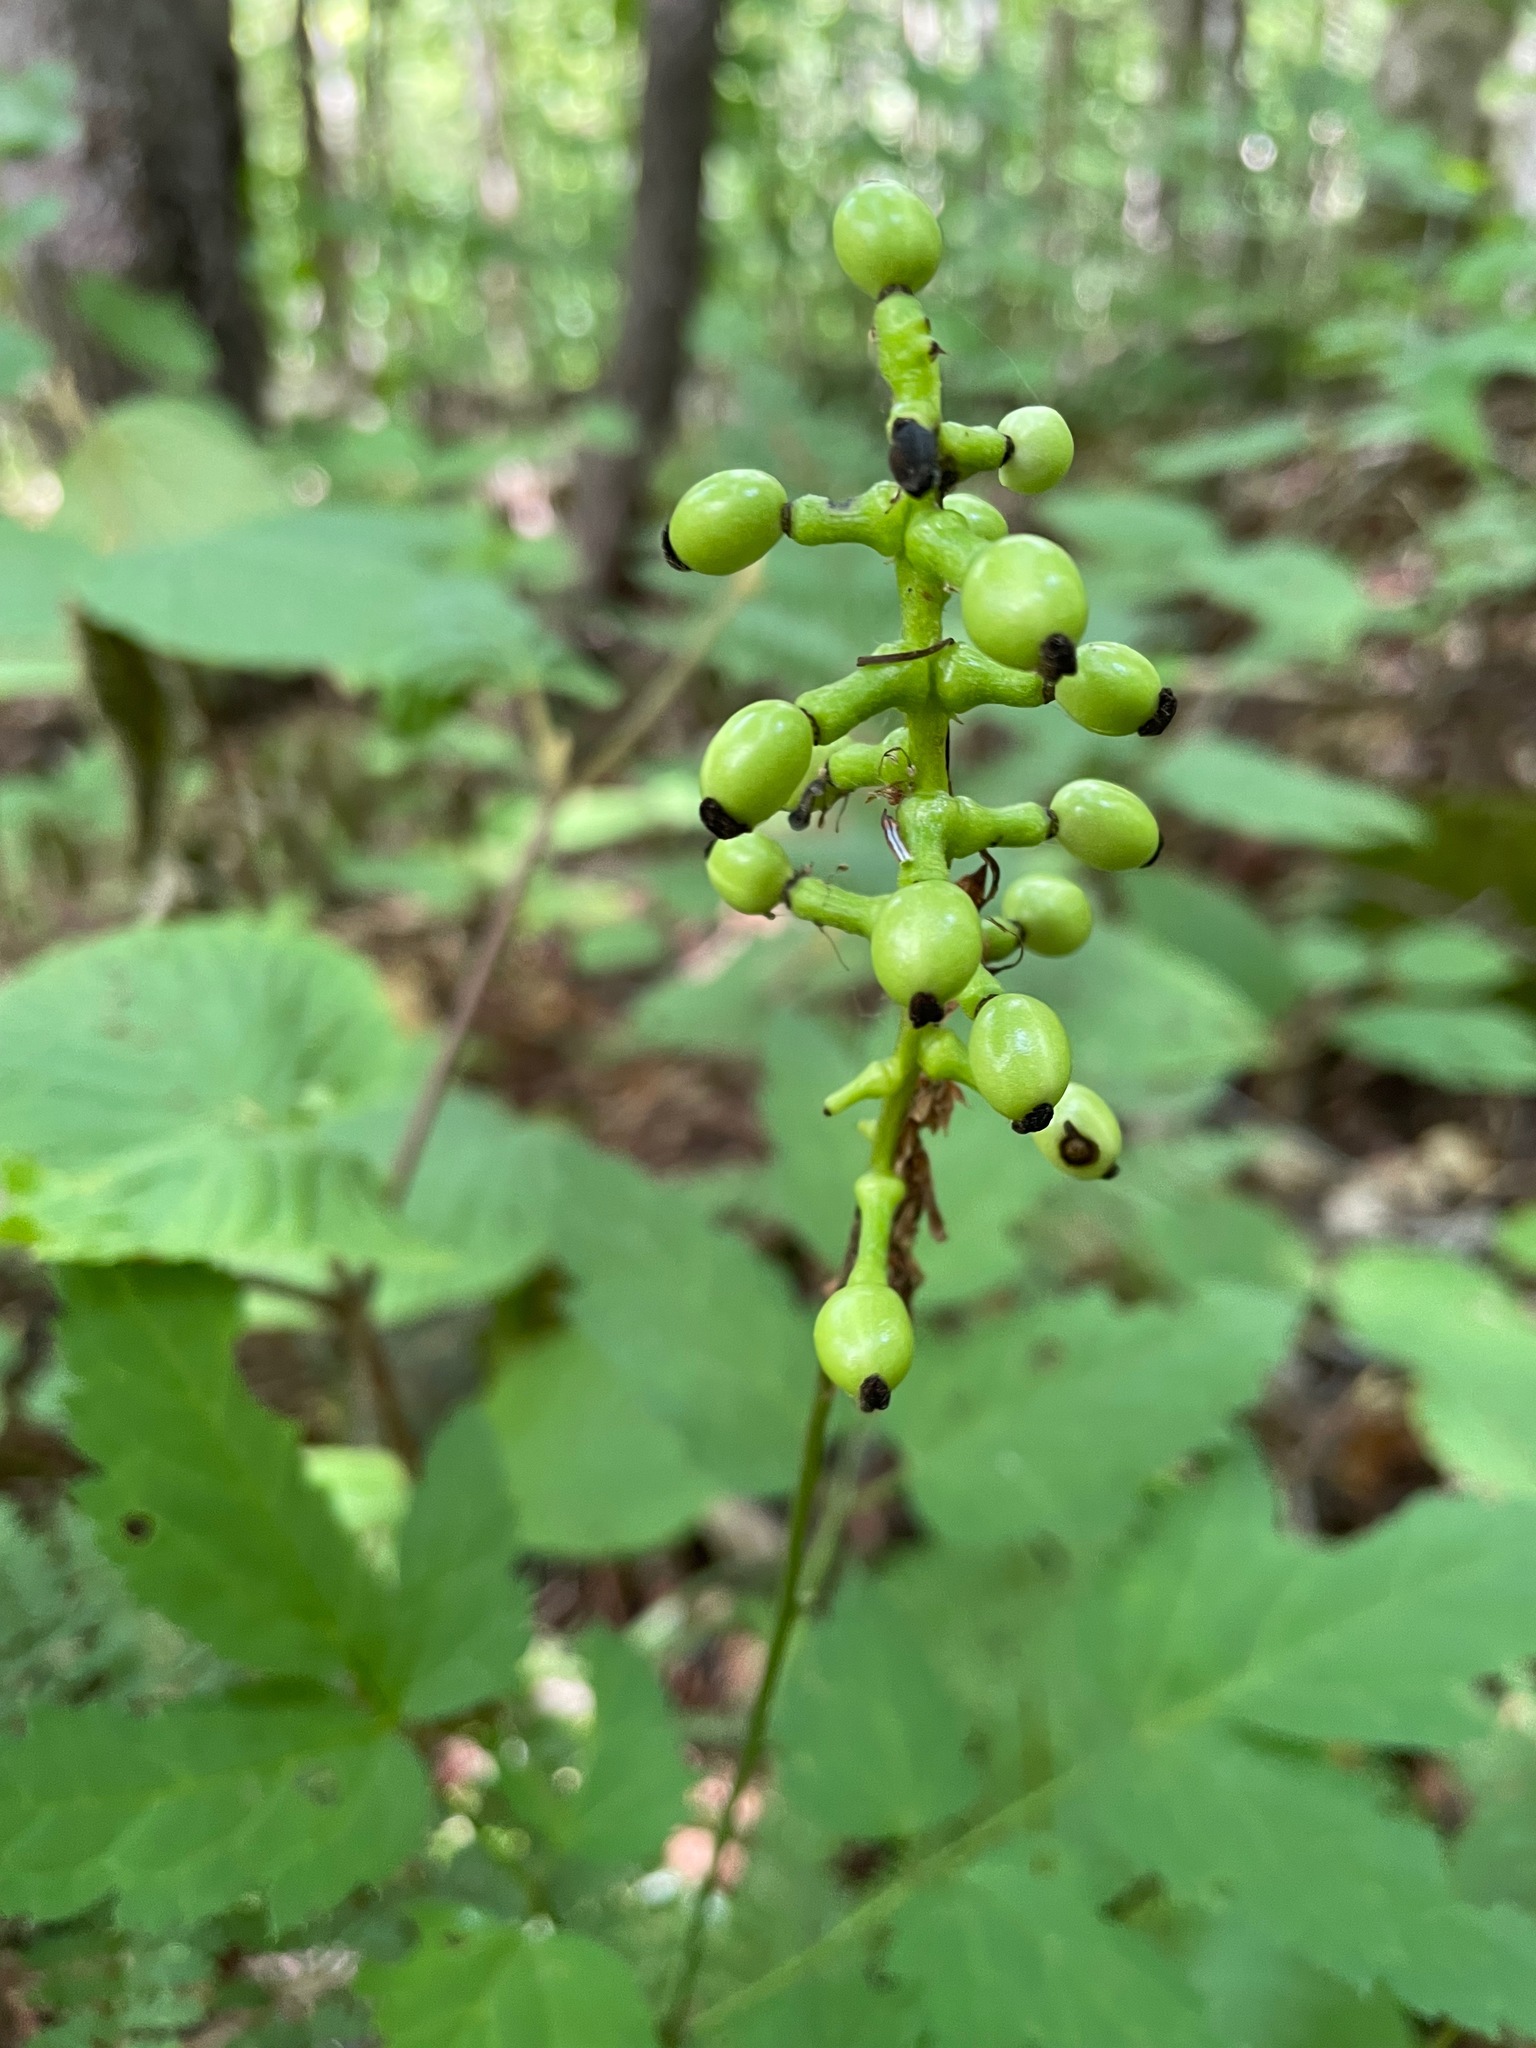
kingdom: Plantae
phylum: Tracheophyta
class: Magnoliopsida
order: Ranunculales
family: Ranunculaceae
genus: Actaea
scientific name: Actaea pachypoda
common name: Doll's-eyes
